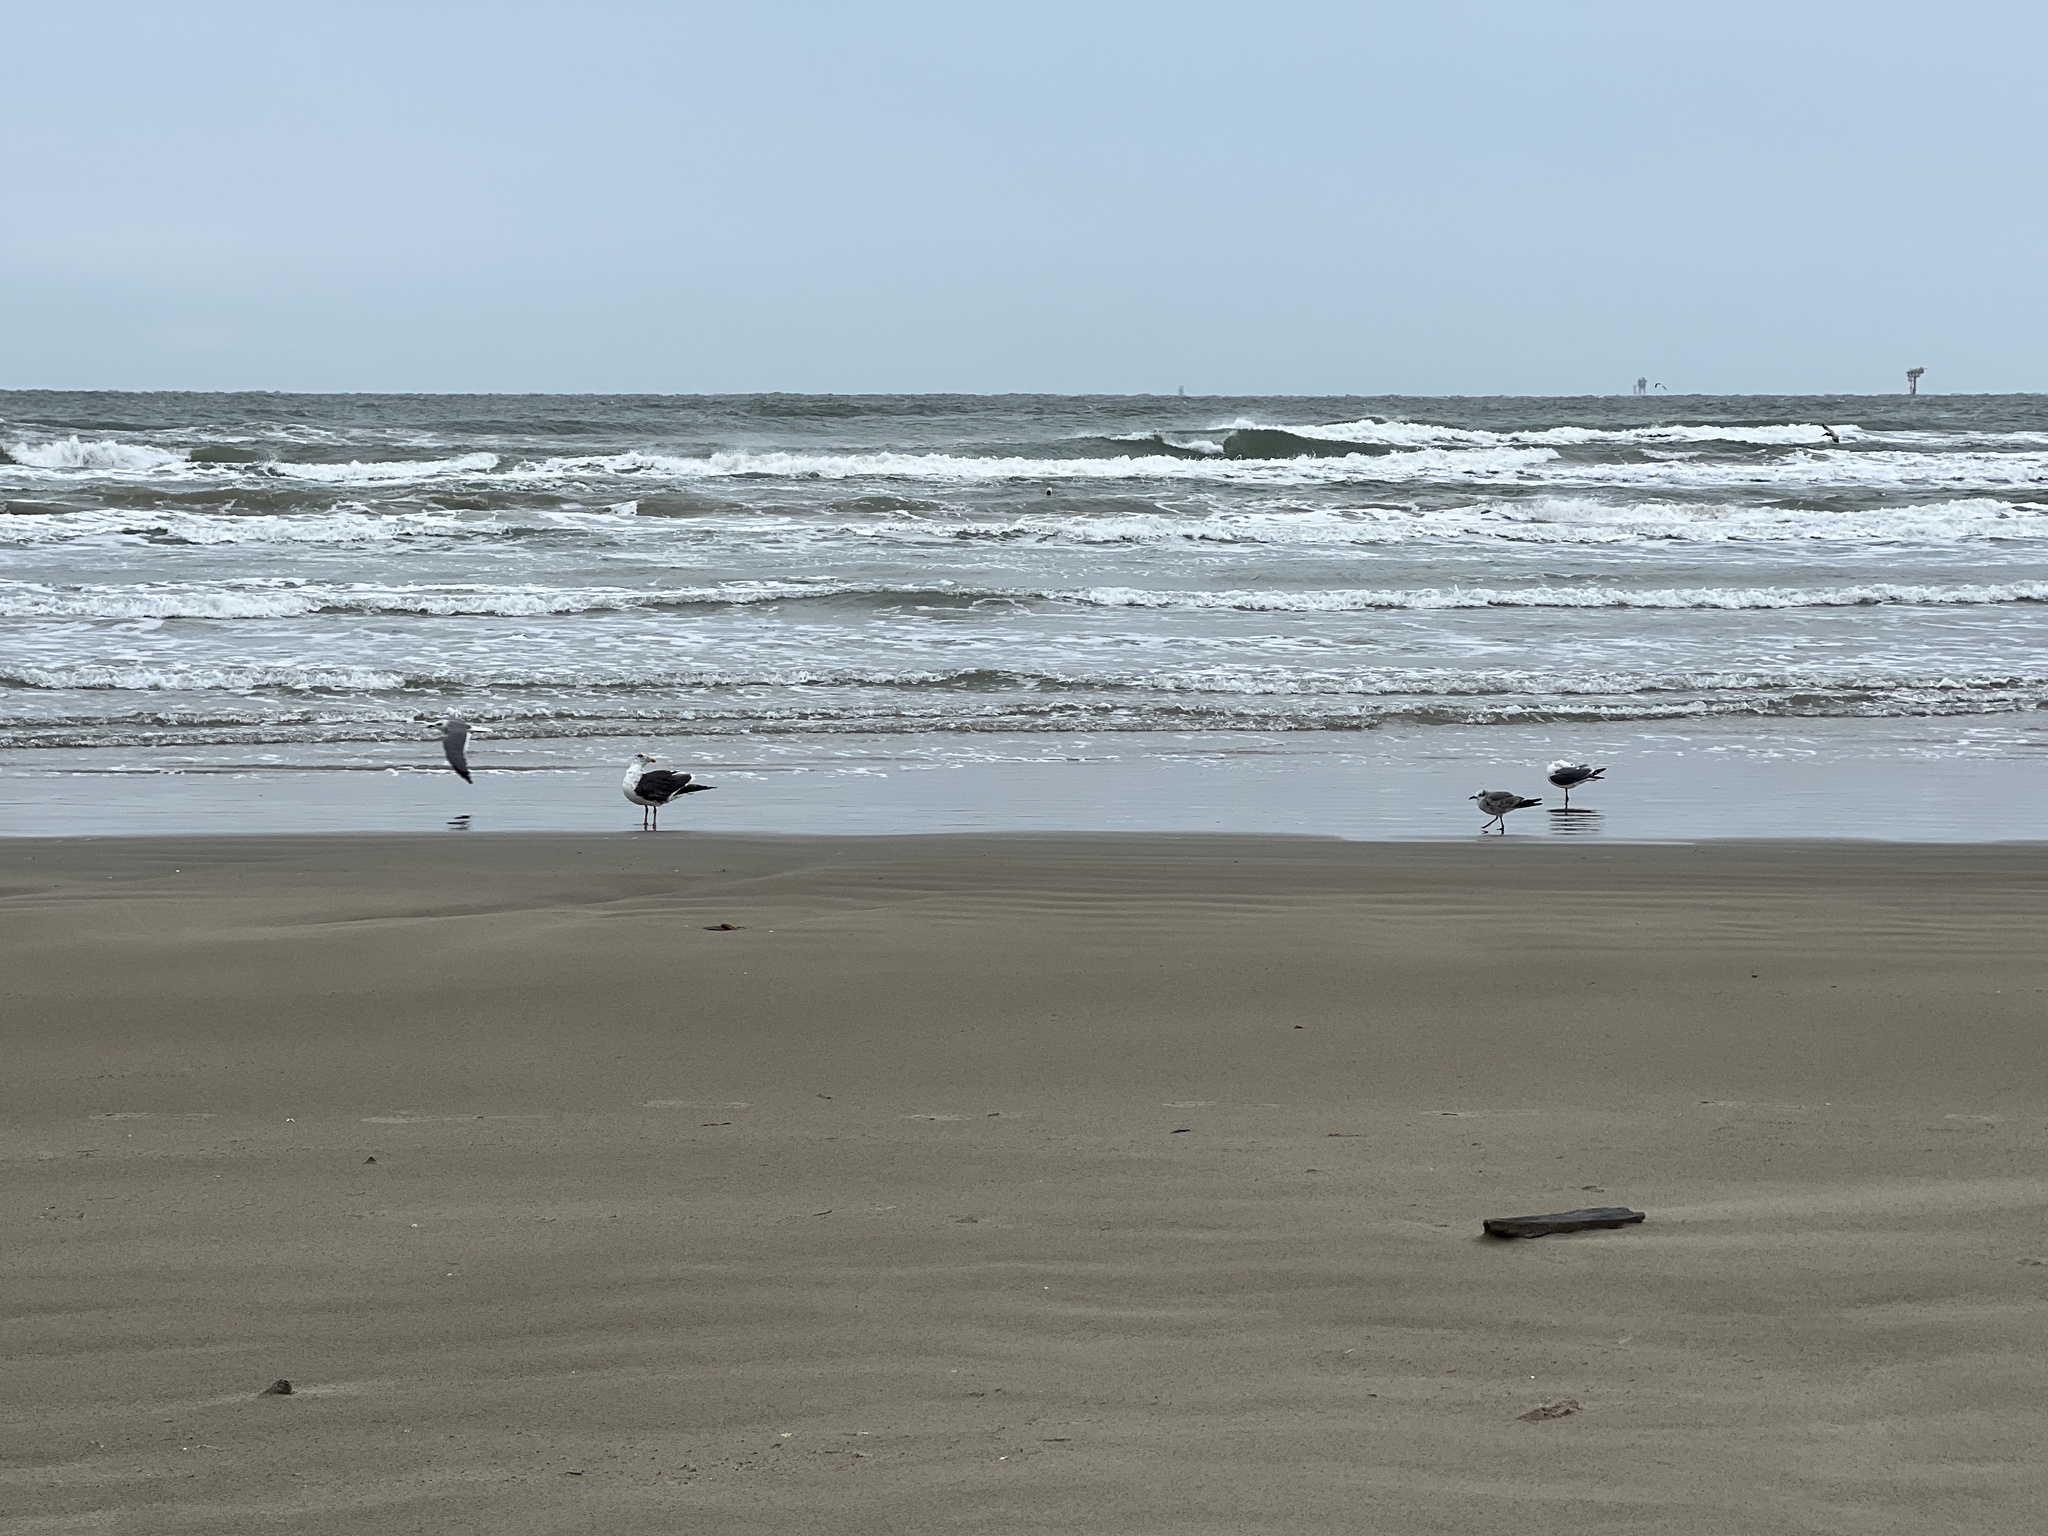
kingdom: Animalia
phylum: Chordata
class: Aves
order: Charadriiformes
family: Laridae
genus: Larus
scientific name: Larus fuscus
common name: Lesser black-backed gull
